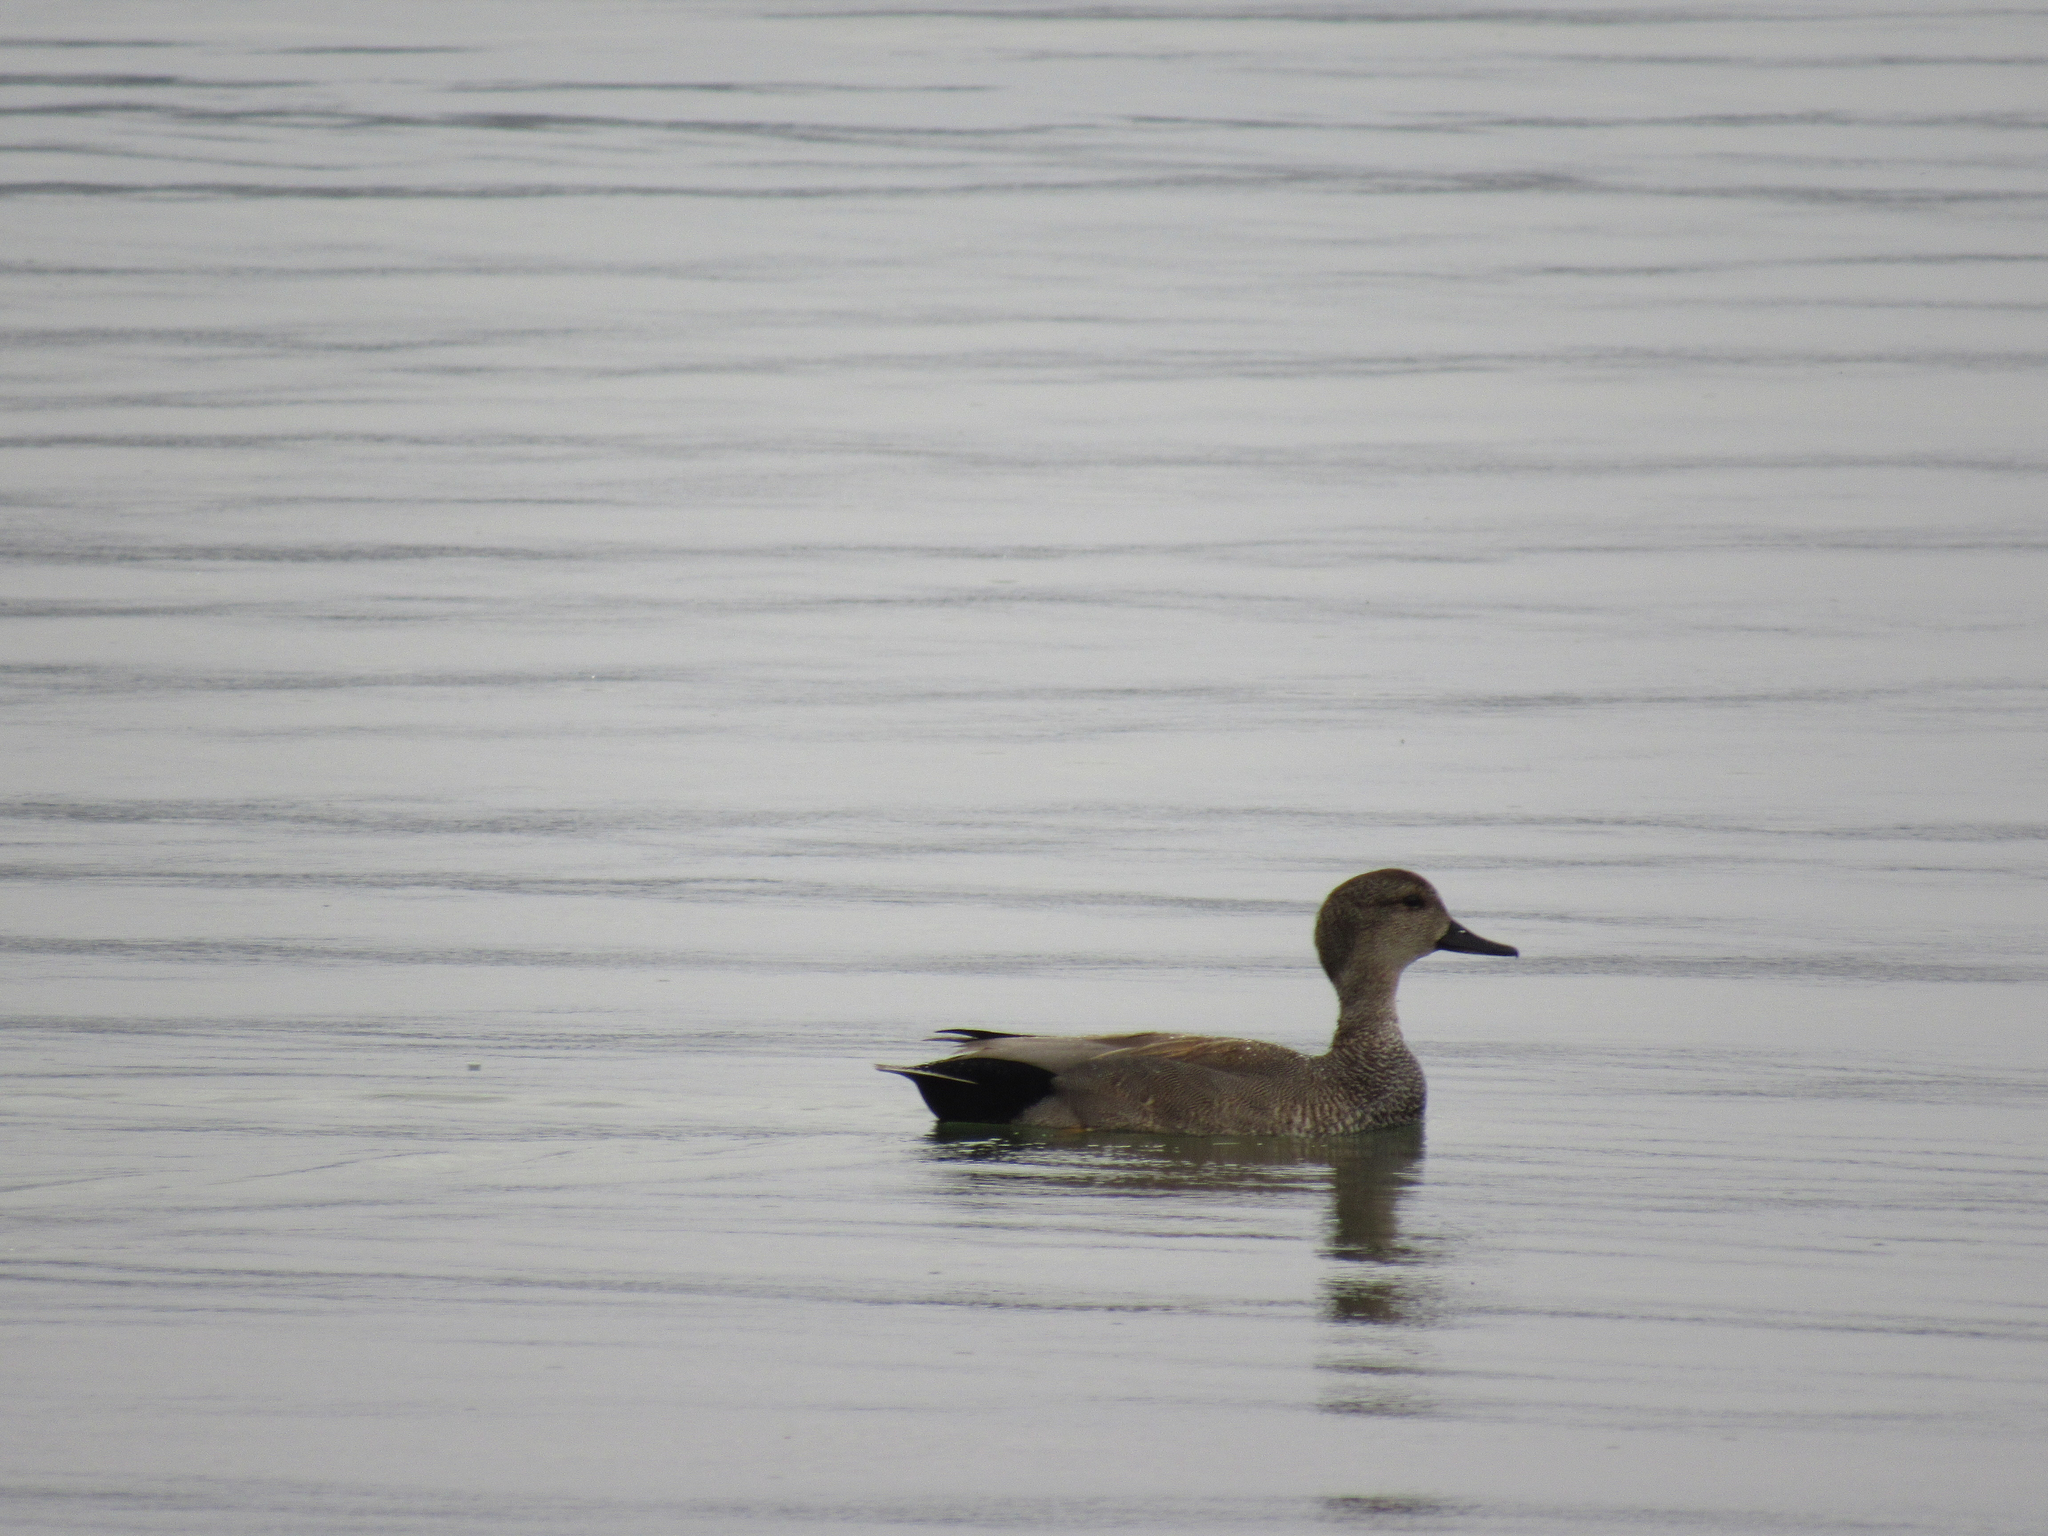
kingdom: Animalia
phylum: Chordata
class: Aves
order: Anseriformes
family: Anatidae
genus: Mareca
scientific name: Mareca strepera
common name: Gadwall
